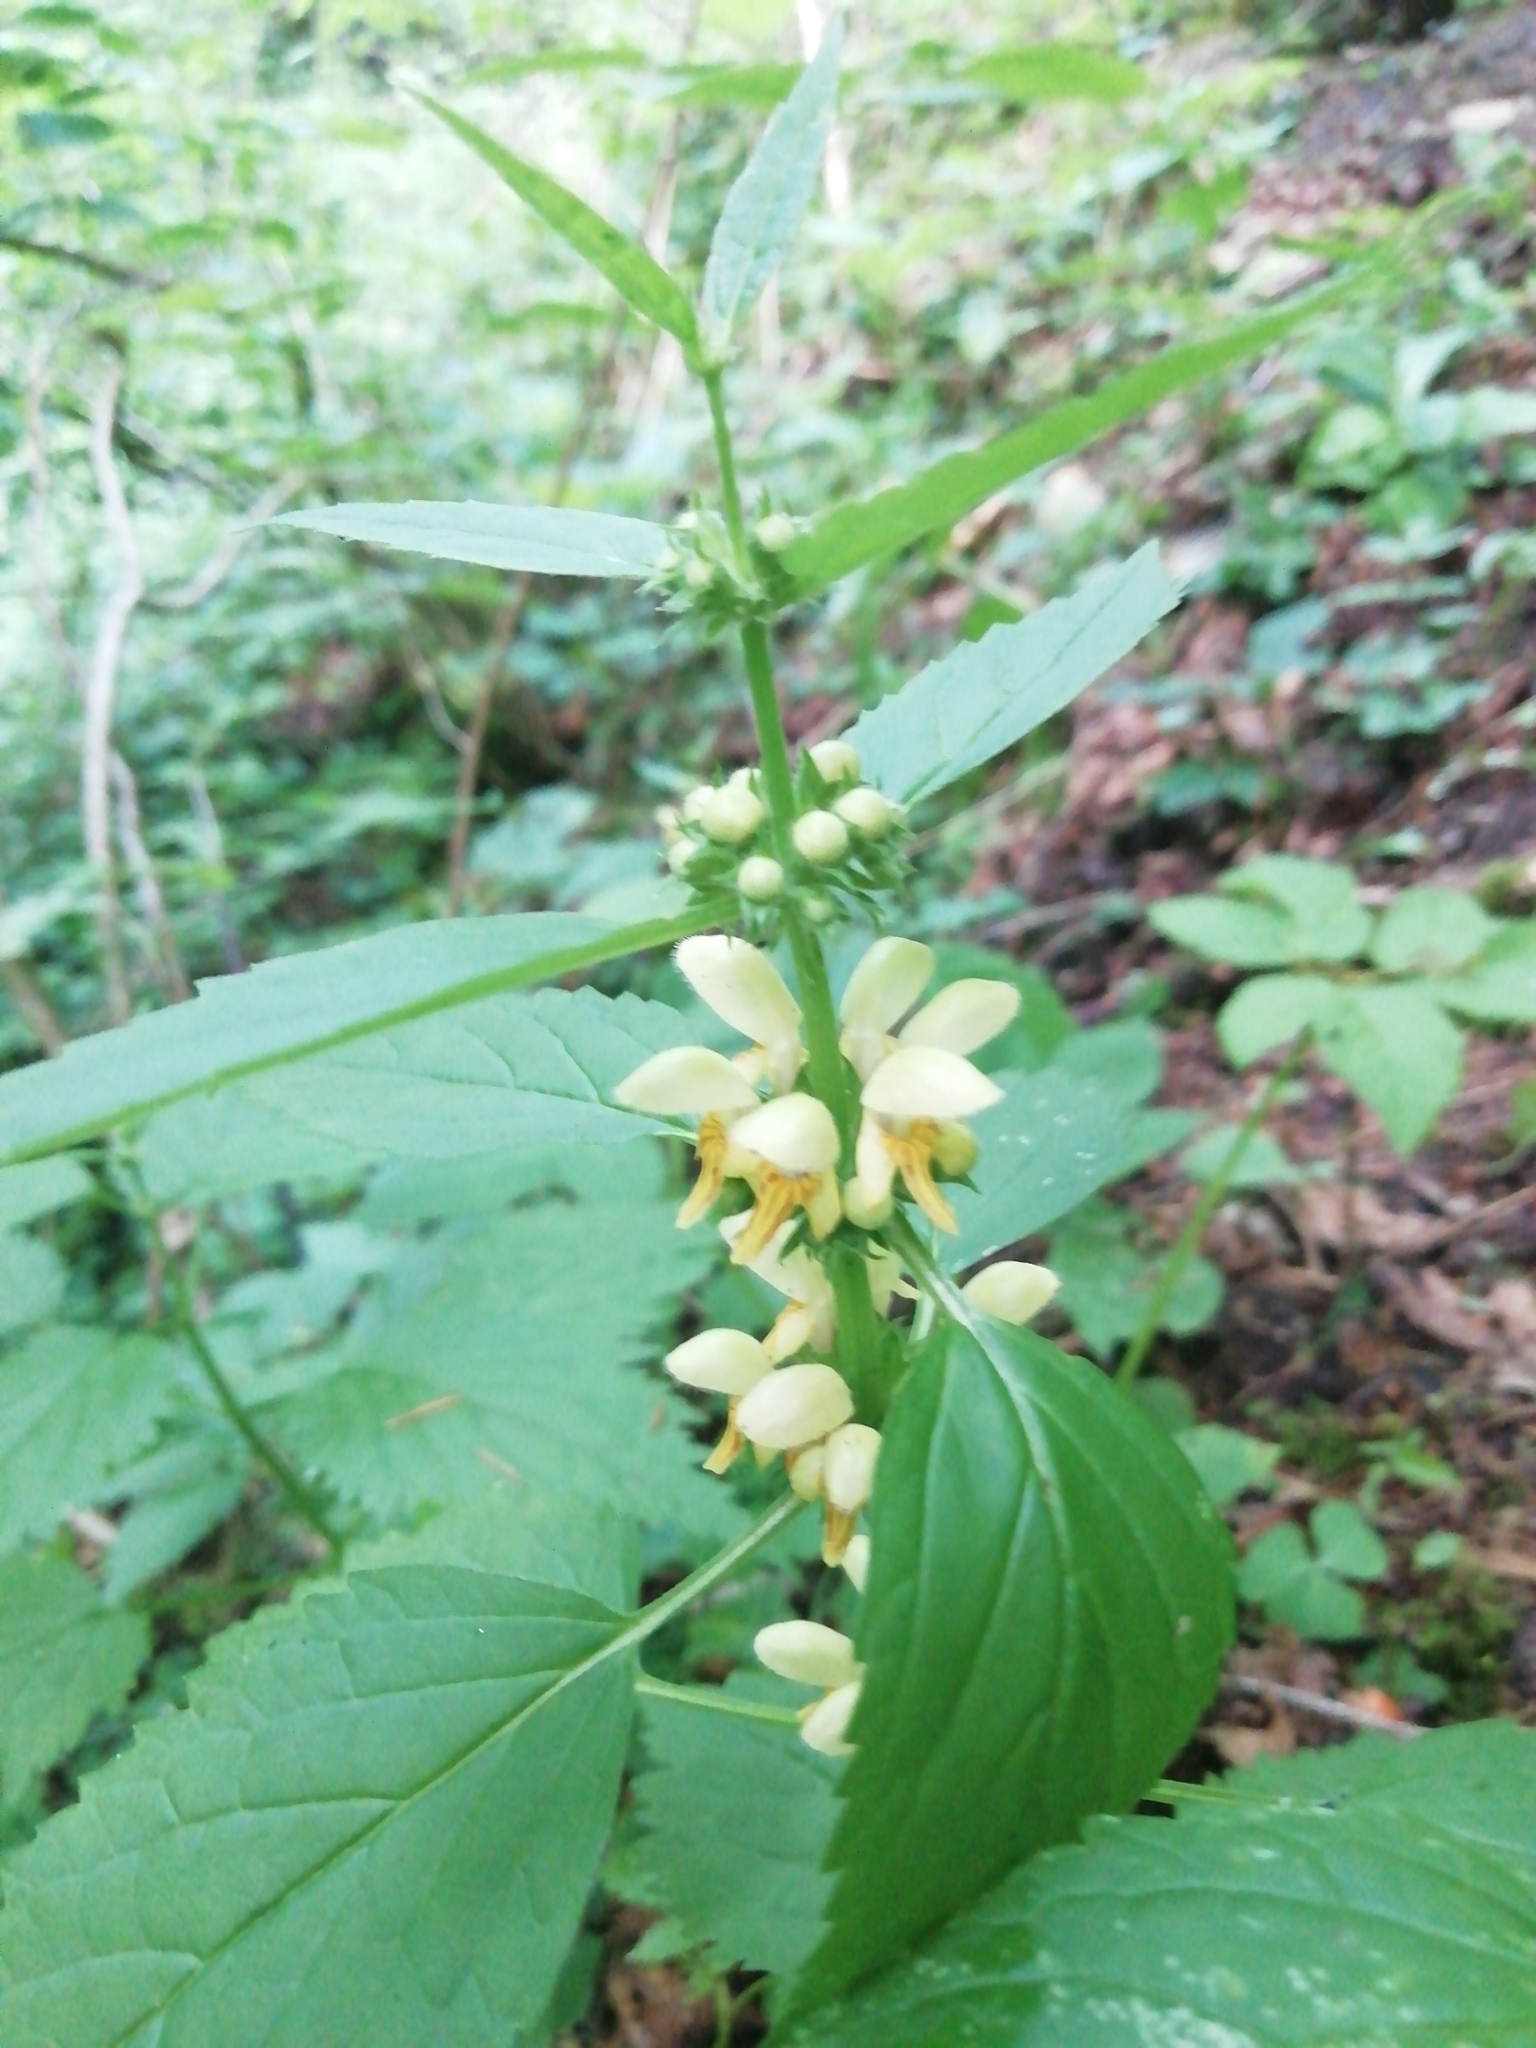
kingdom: Plantae
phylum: Tracheophyta
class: Magnoliopsida
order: Lamiales
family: Lamiaceae
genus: Lamium
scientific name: Lamium galeobdolon
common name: Yellow archangel
